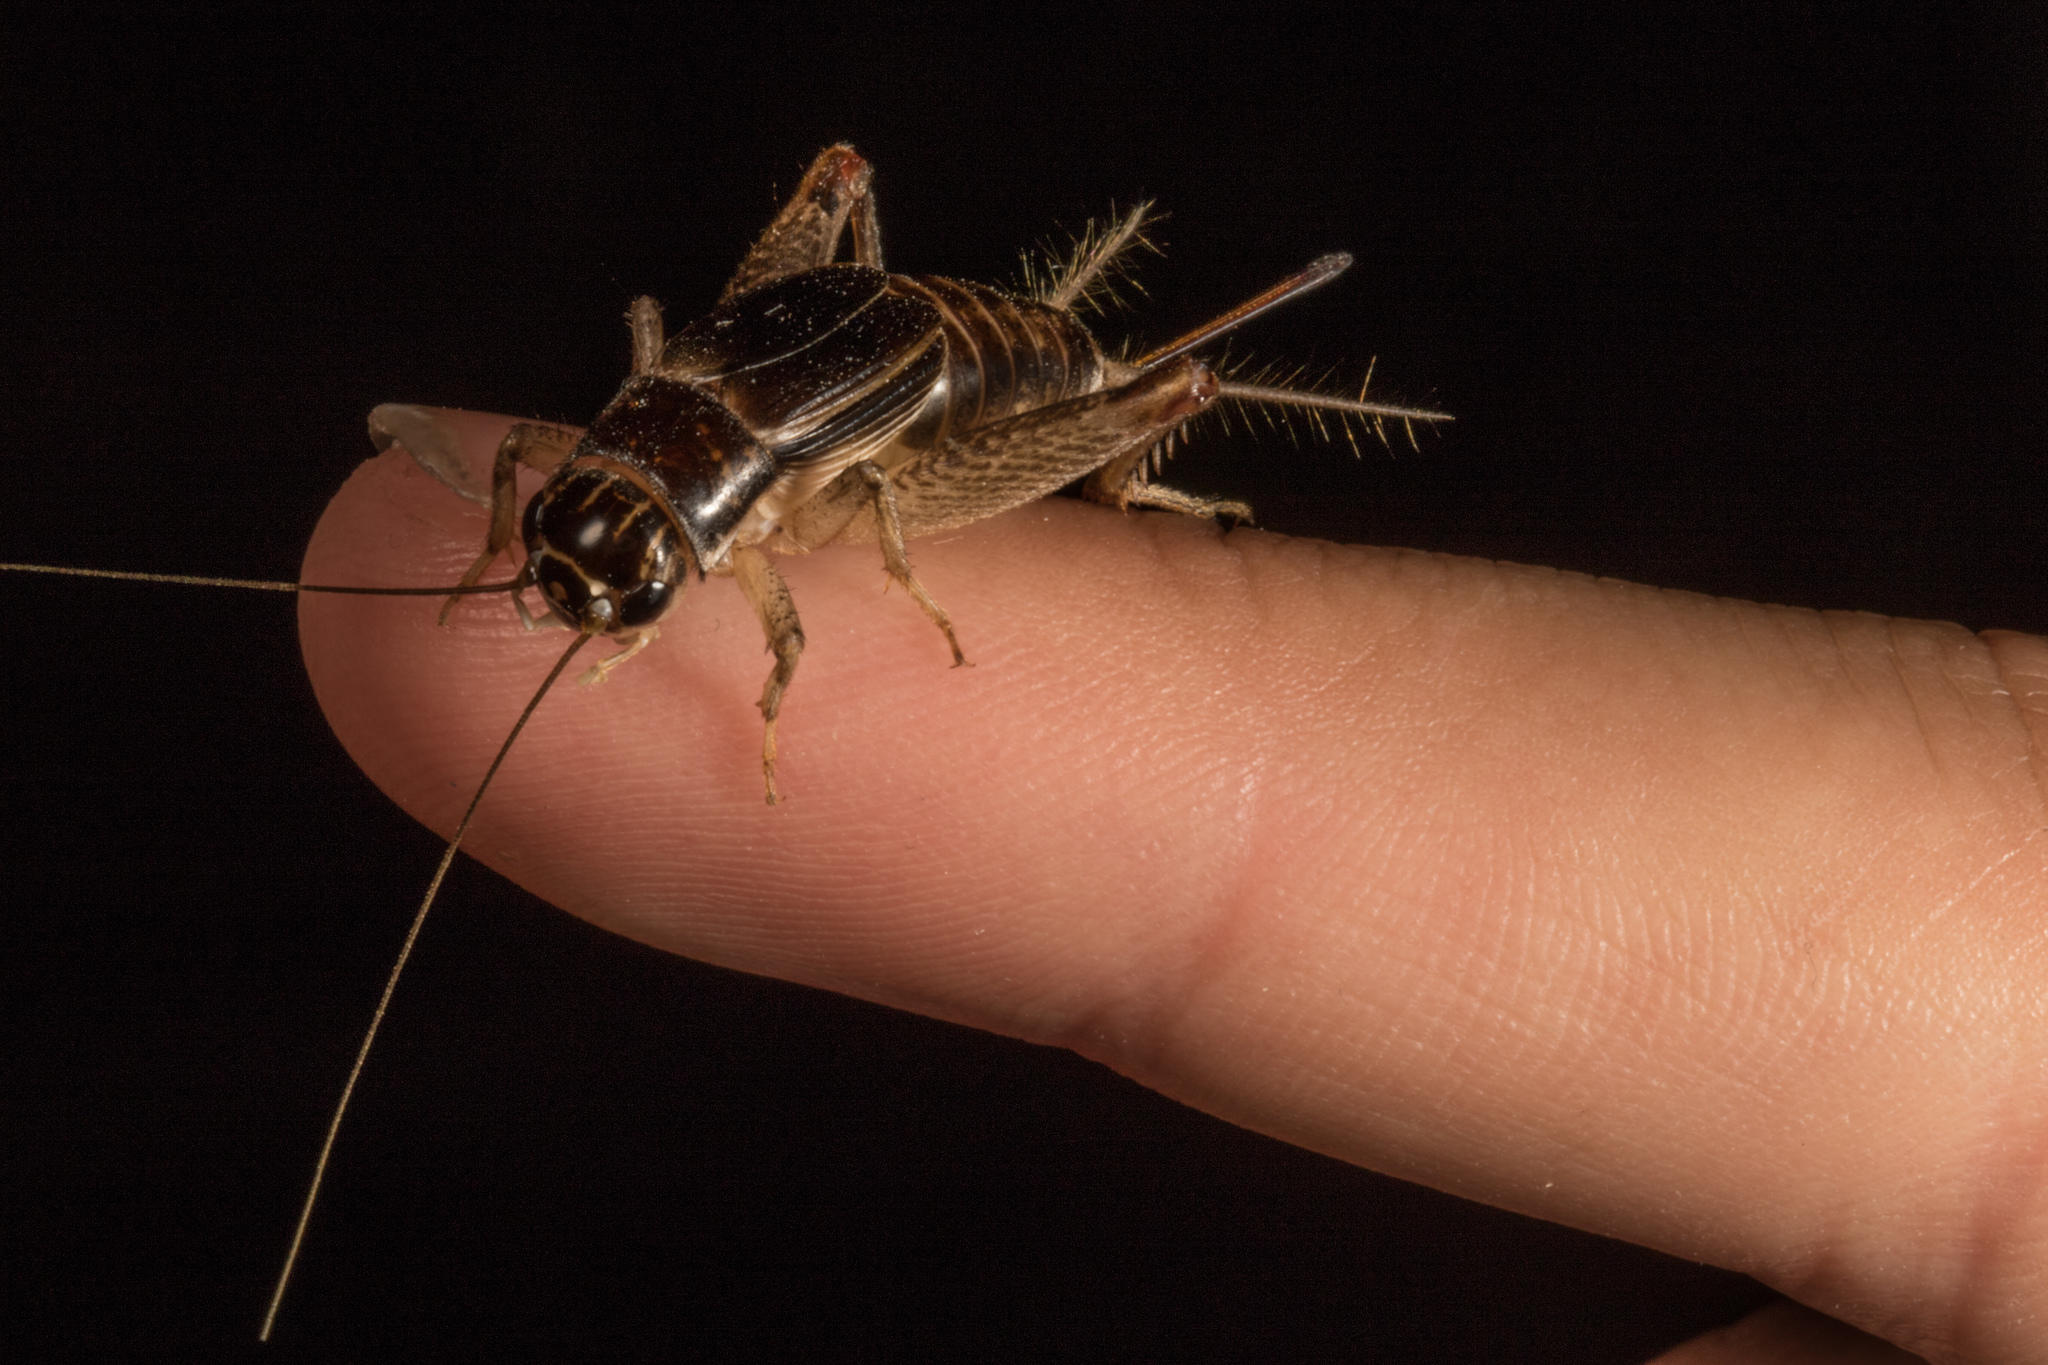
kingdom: Animalia
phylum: Arthropoda
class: Insecta
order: Orthoptera
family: Gryllidae
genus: Lepidogryllus
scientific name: Lepidogryllus parvulus
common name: Fast-chirping field crickets
